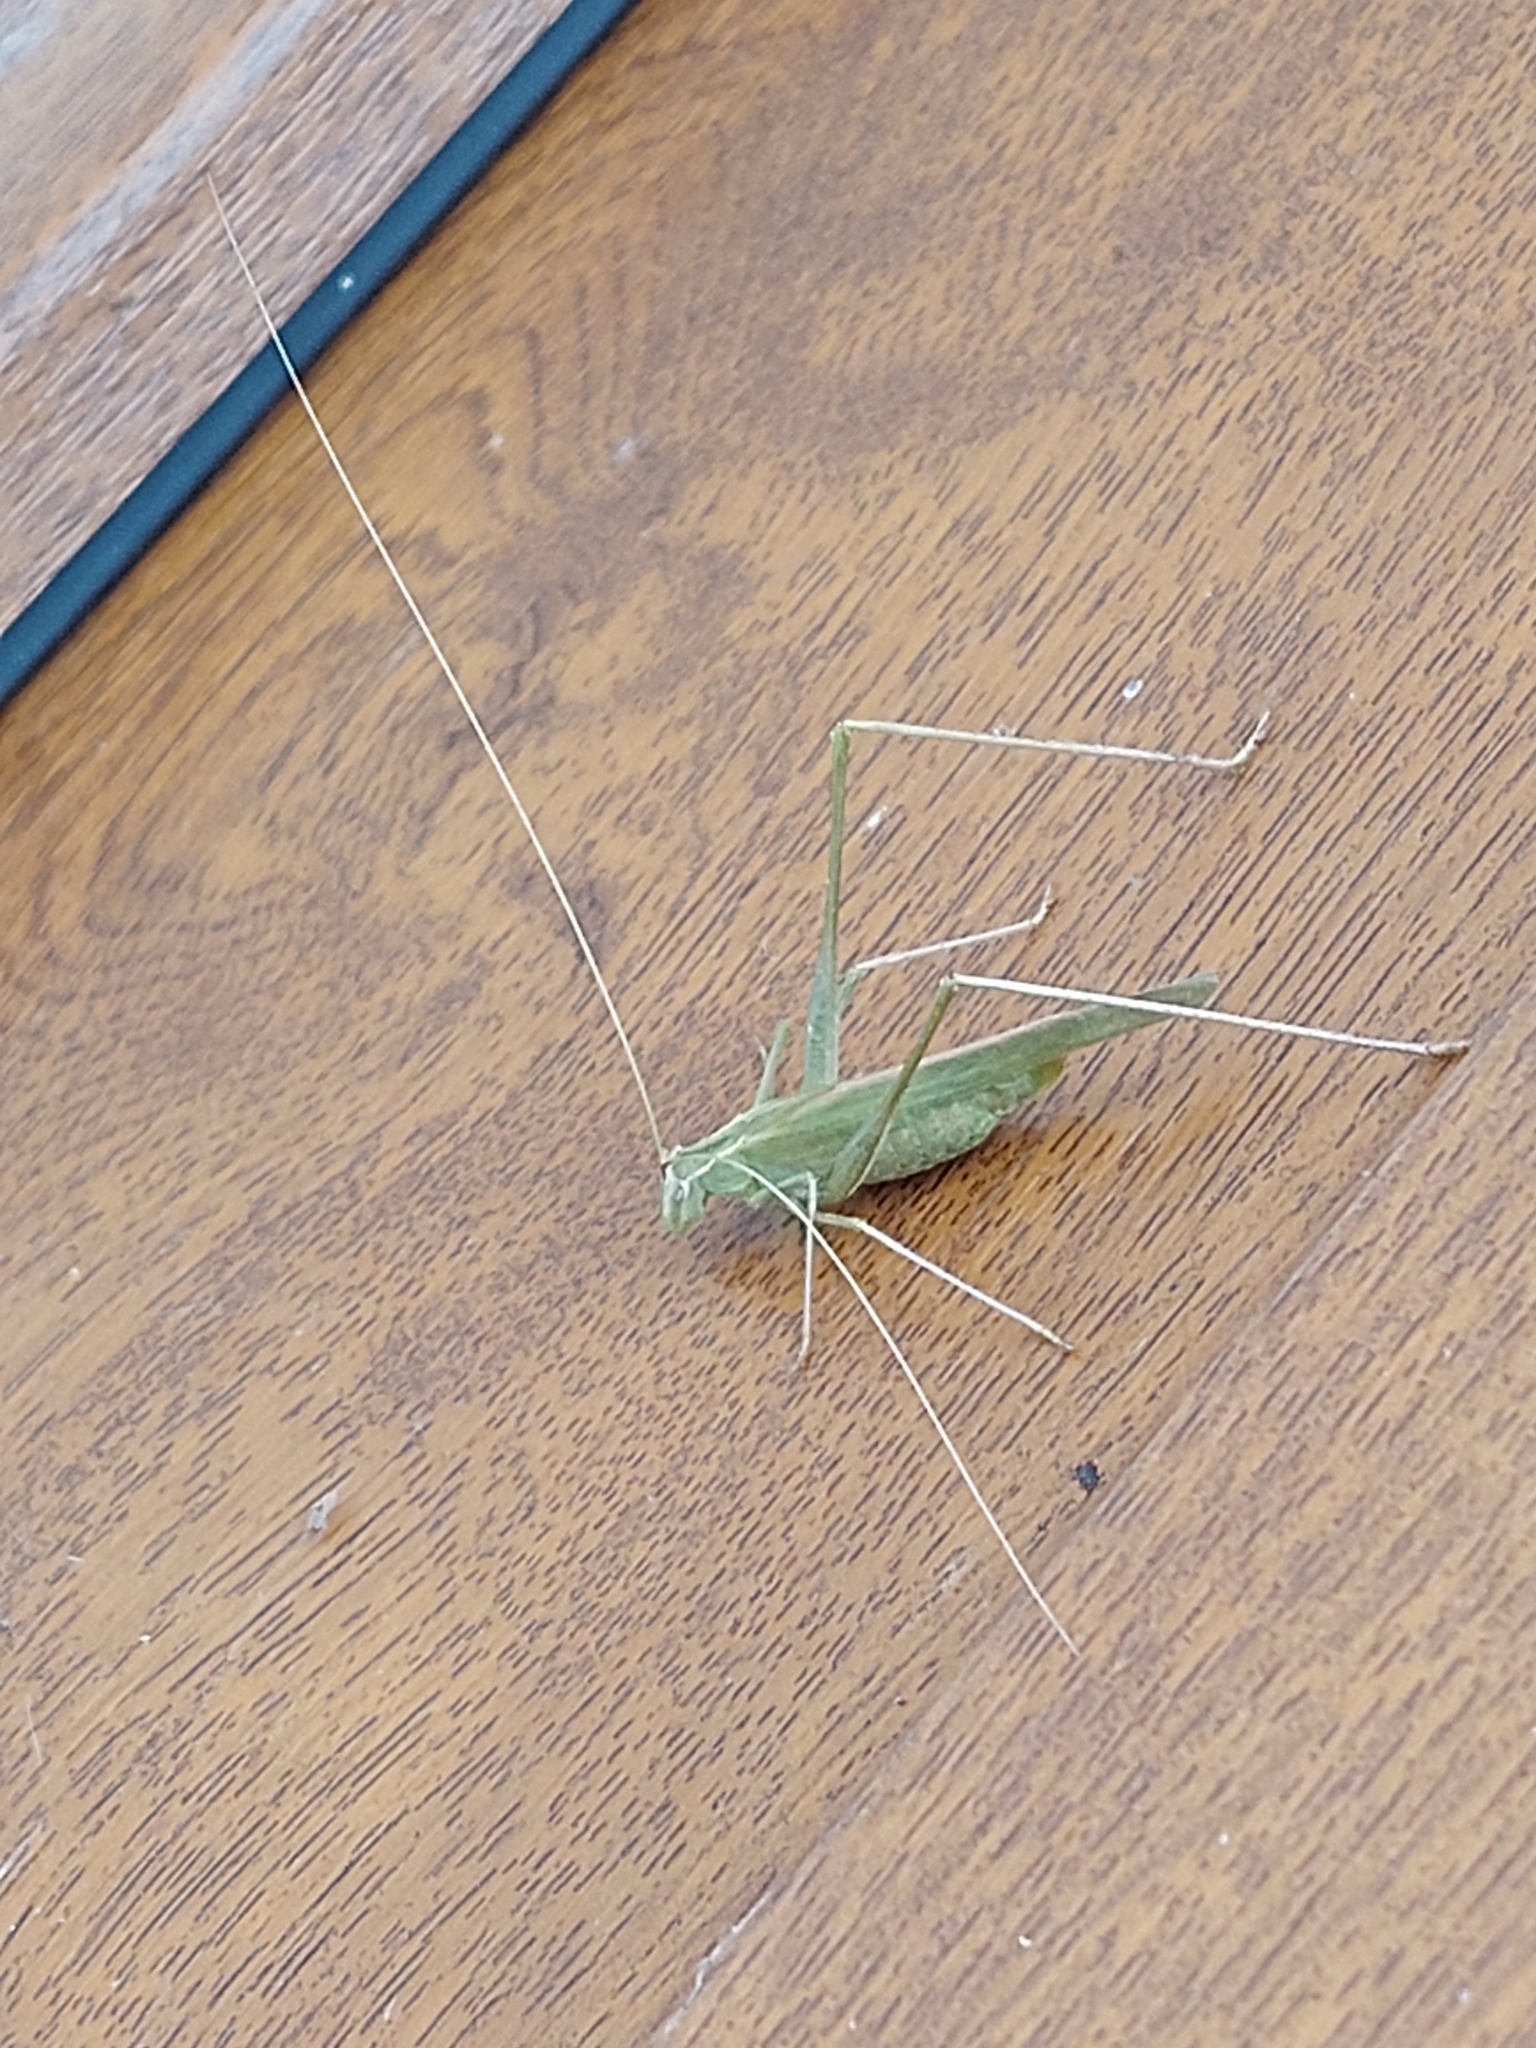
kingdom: Animalia
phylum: Arthropoda
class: Insecta
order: Orthoptera
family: Tettigoniidae
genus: Tylopsis
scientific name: Tylopsis lilifolia
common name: Lily bush-cricket
